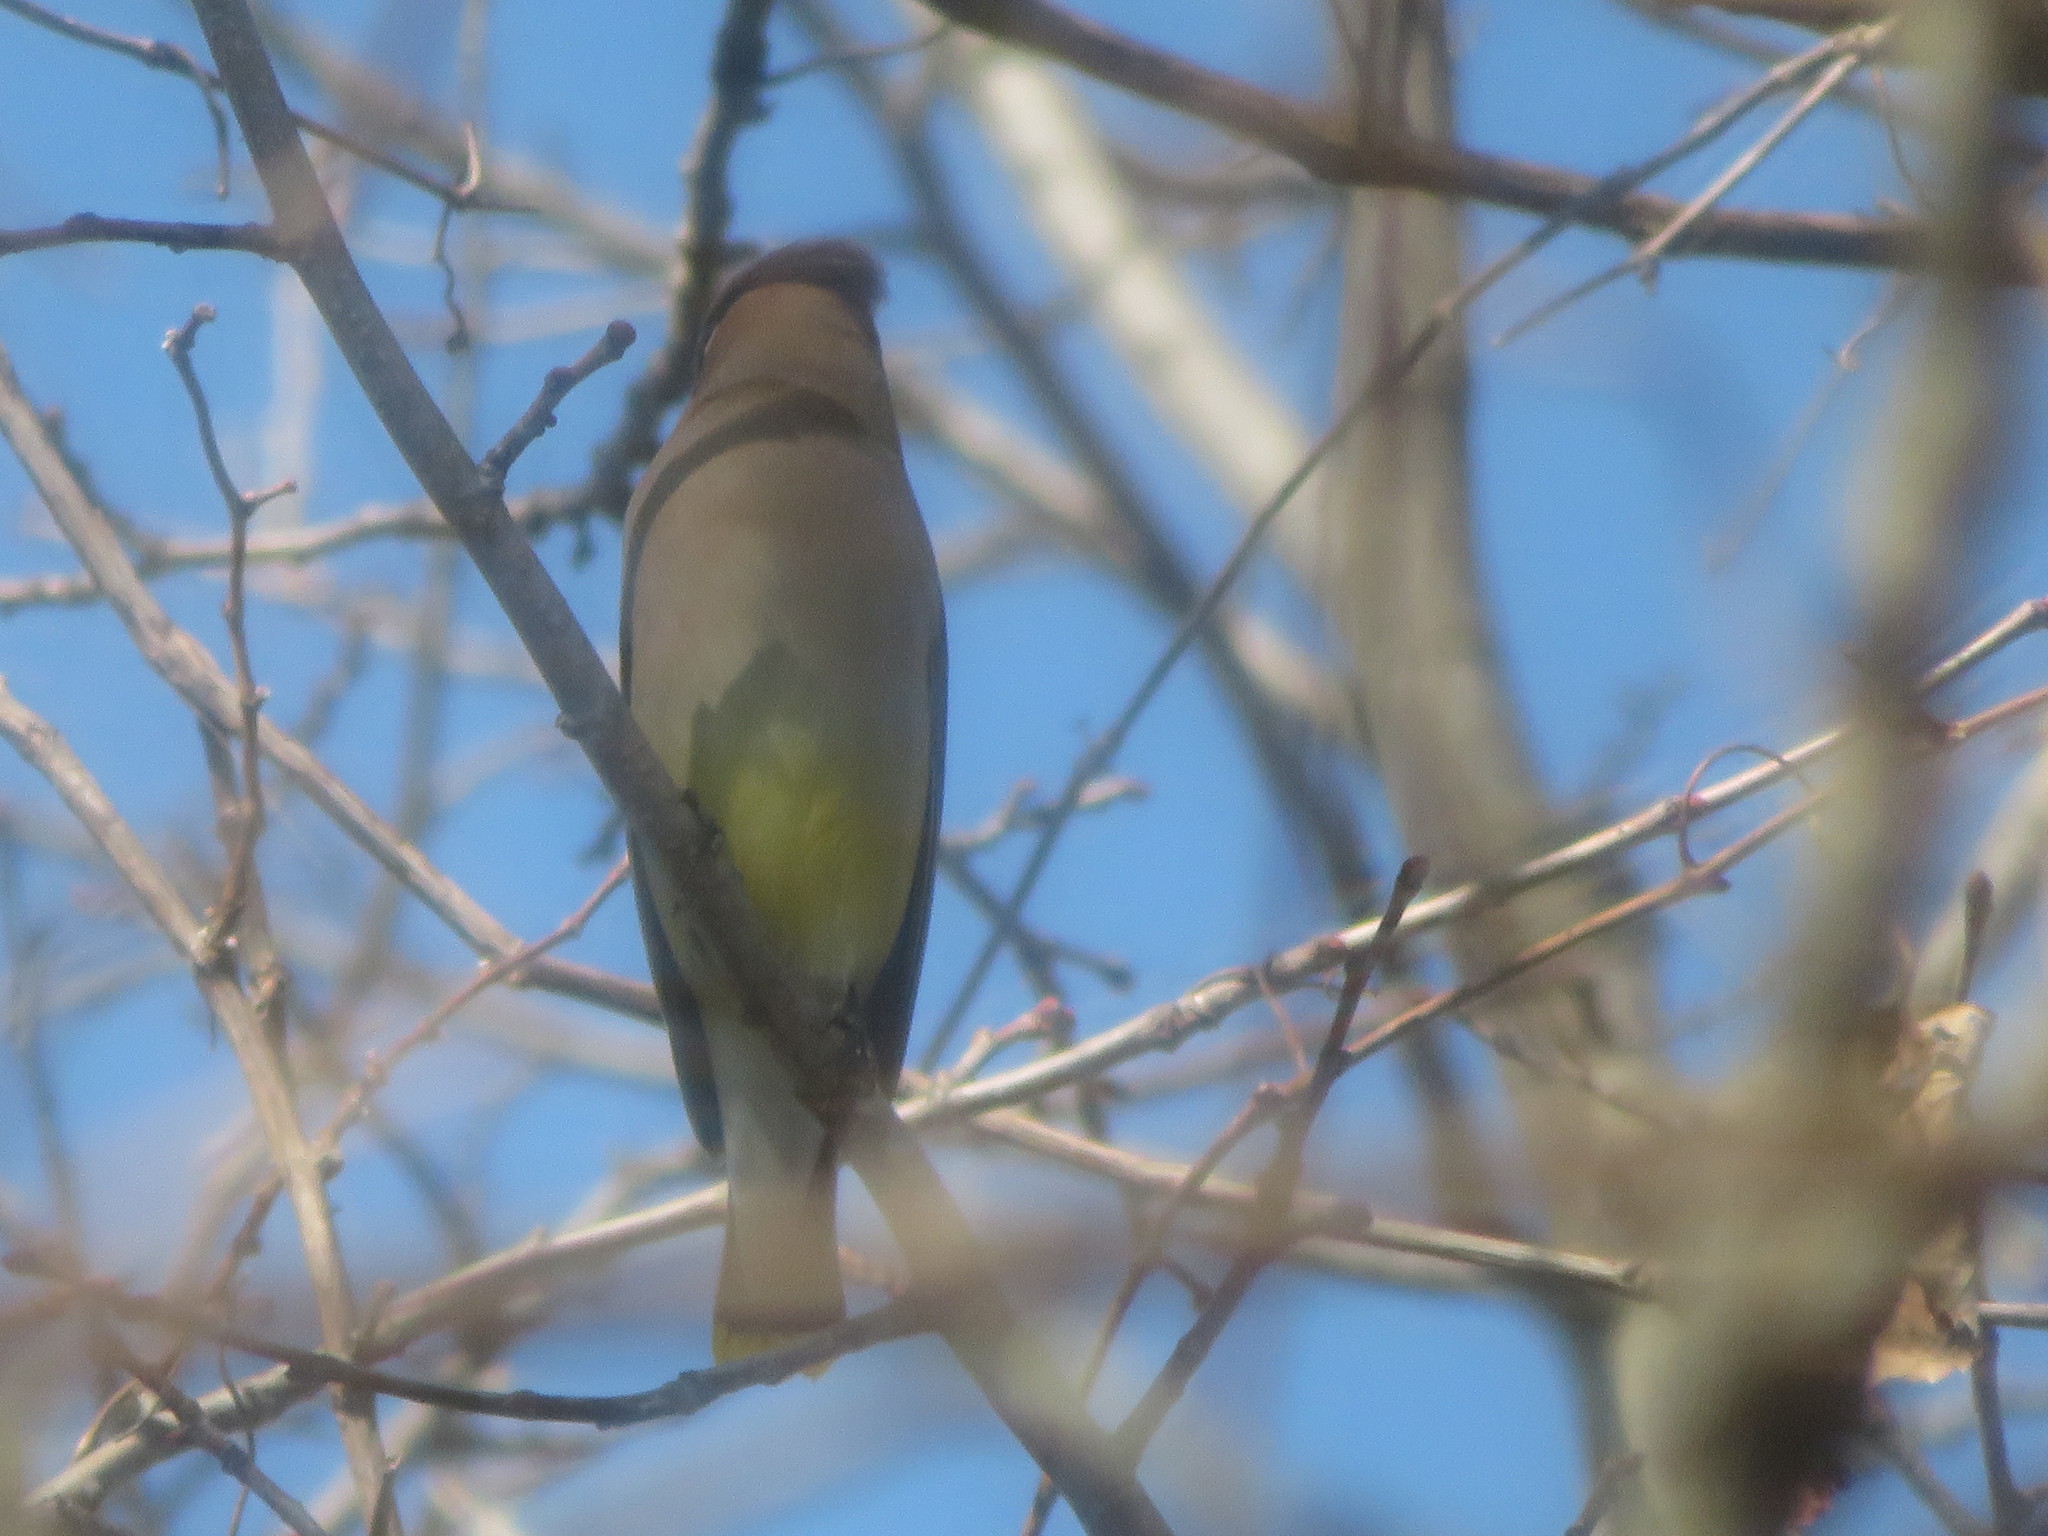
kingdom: Animalia
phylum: Chordata
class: Aves
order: Passeriformes
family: Bombycillidae
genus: Bombycilla
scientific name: Bombycilla cedrorum
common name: Cedar waxwing
